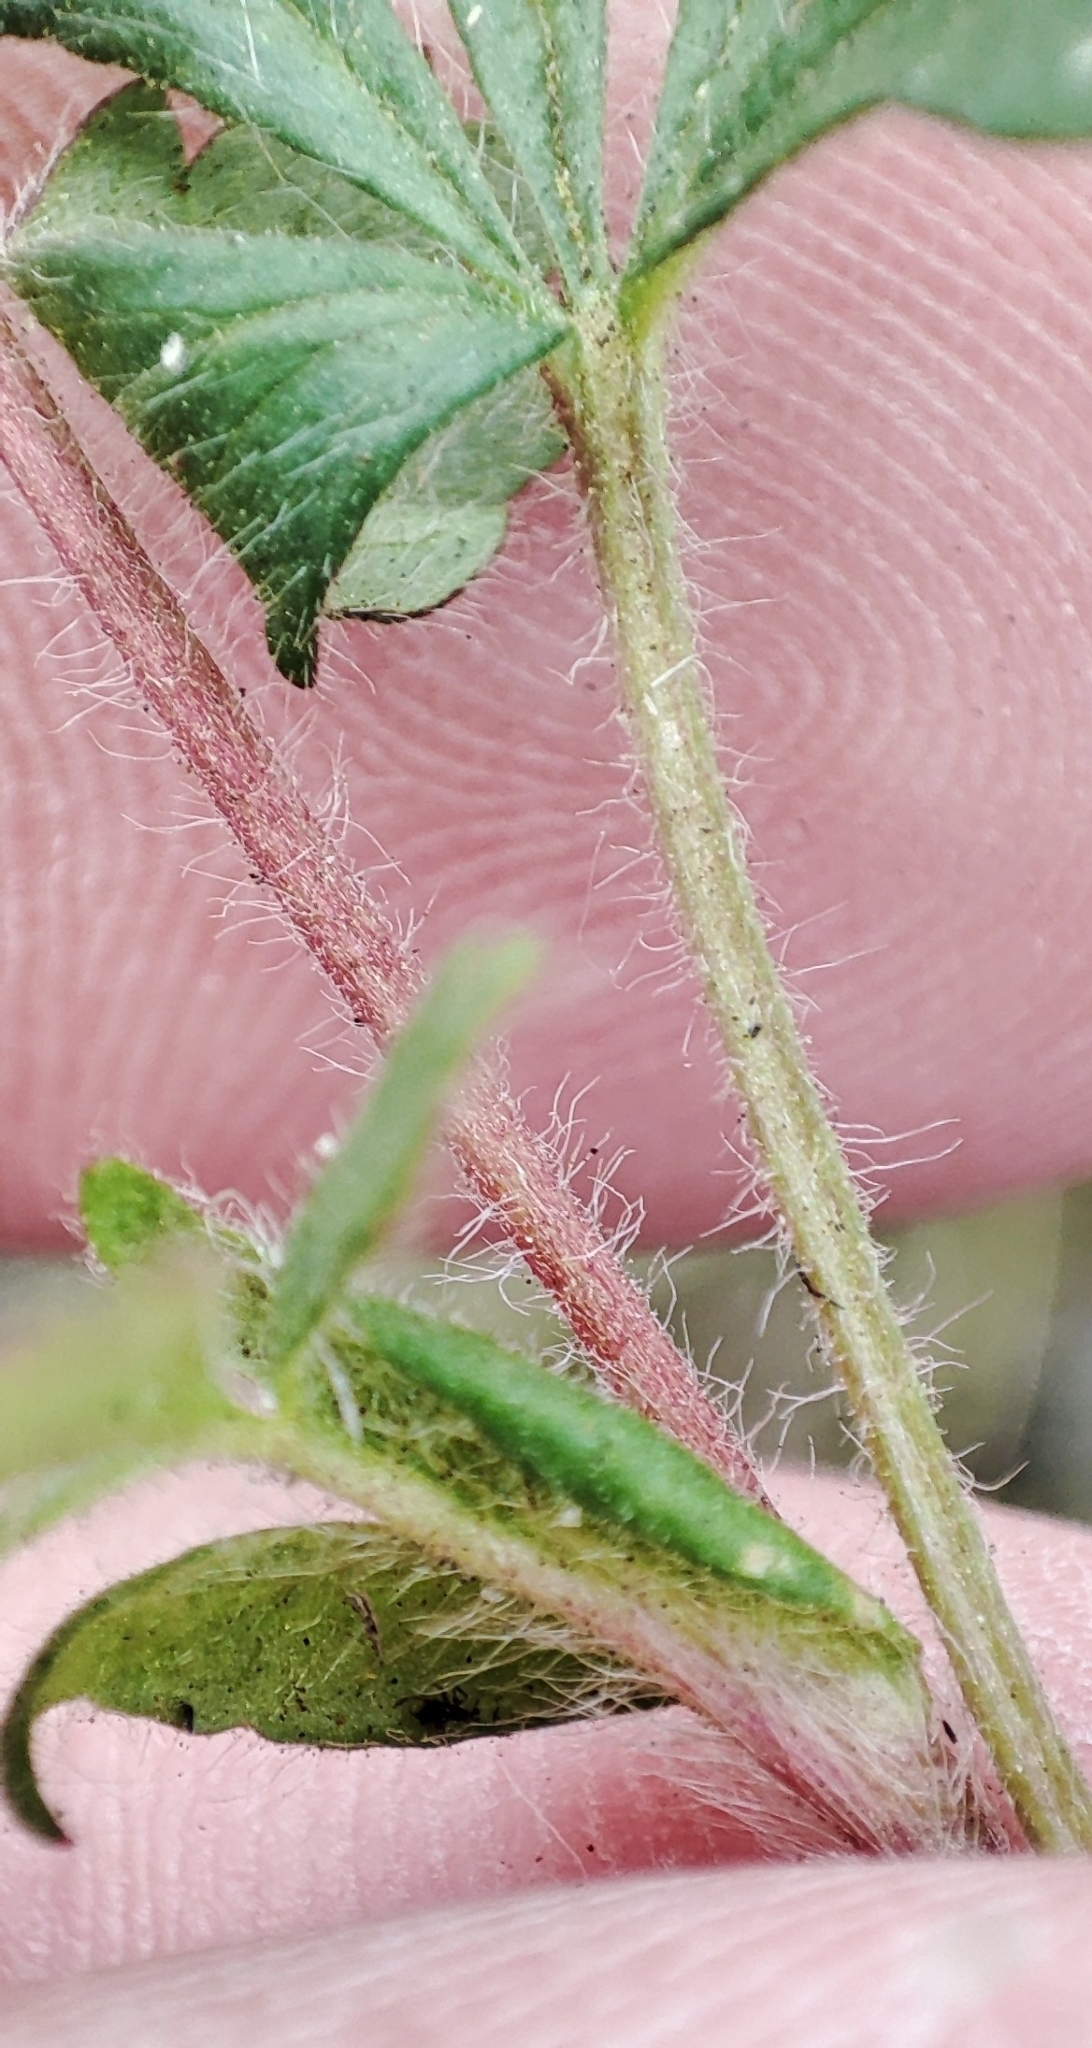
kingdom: Plantae
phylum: Tracheophyta
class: Magnoliopsida
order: Rosales
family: Rosaceae
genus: Potentilla
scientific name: Potentilla humifusa
